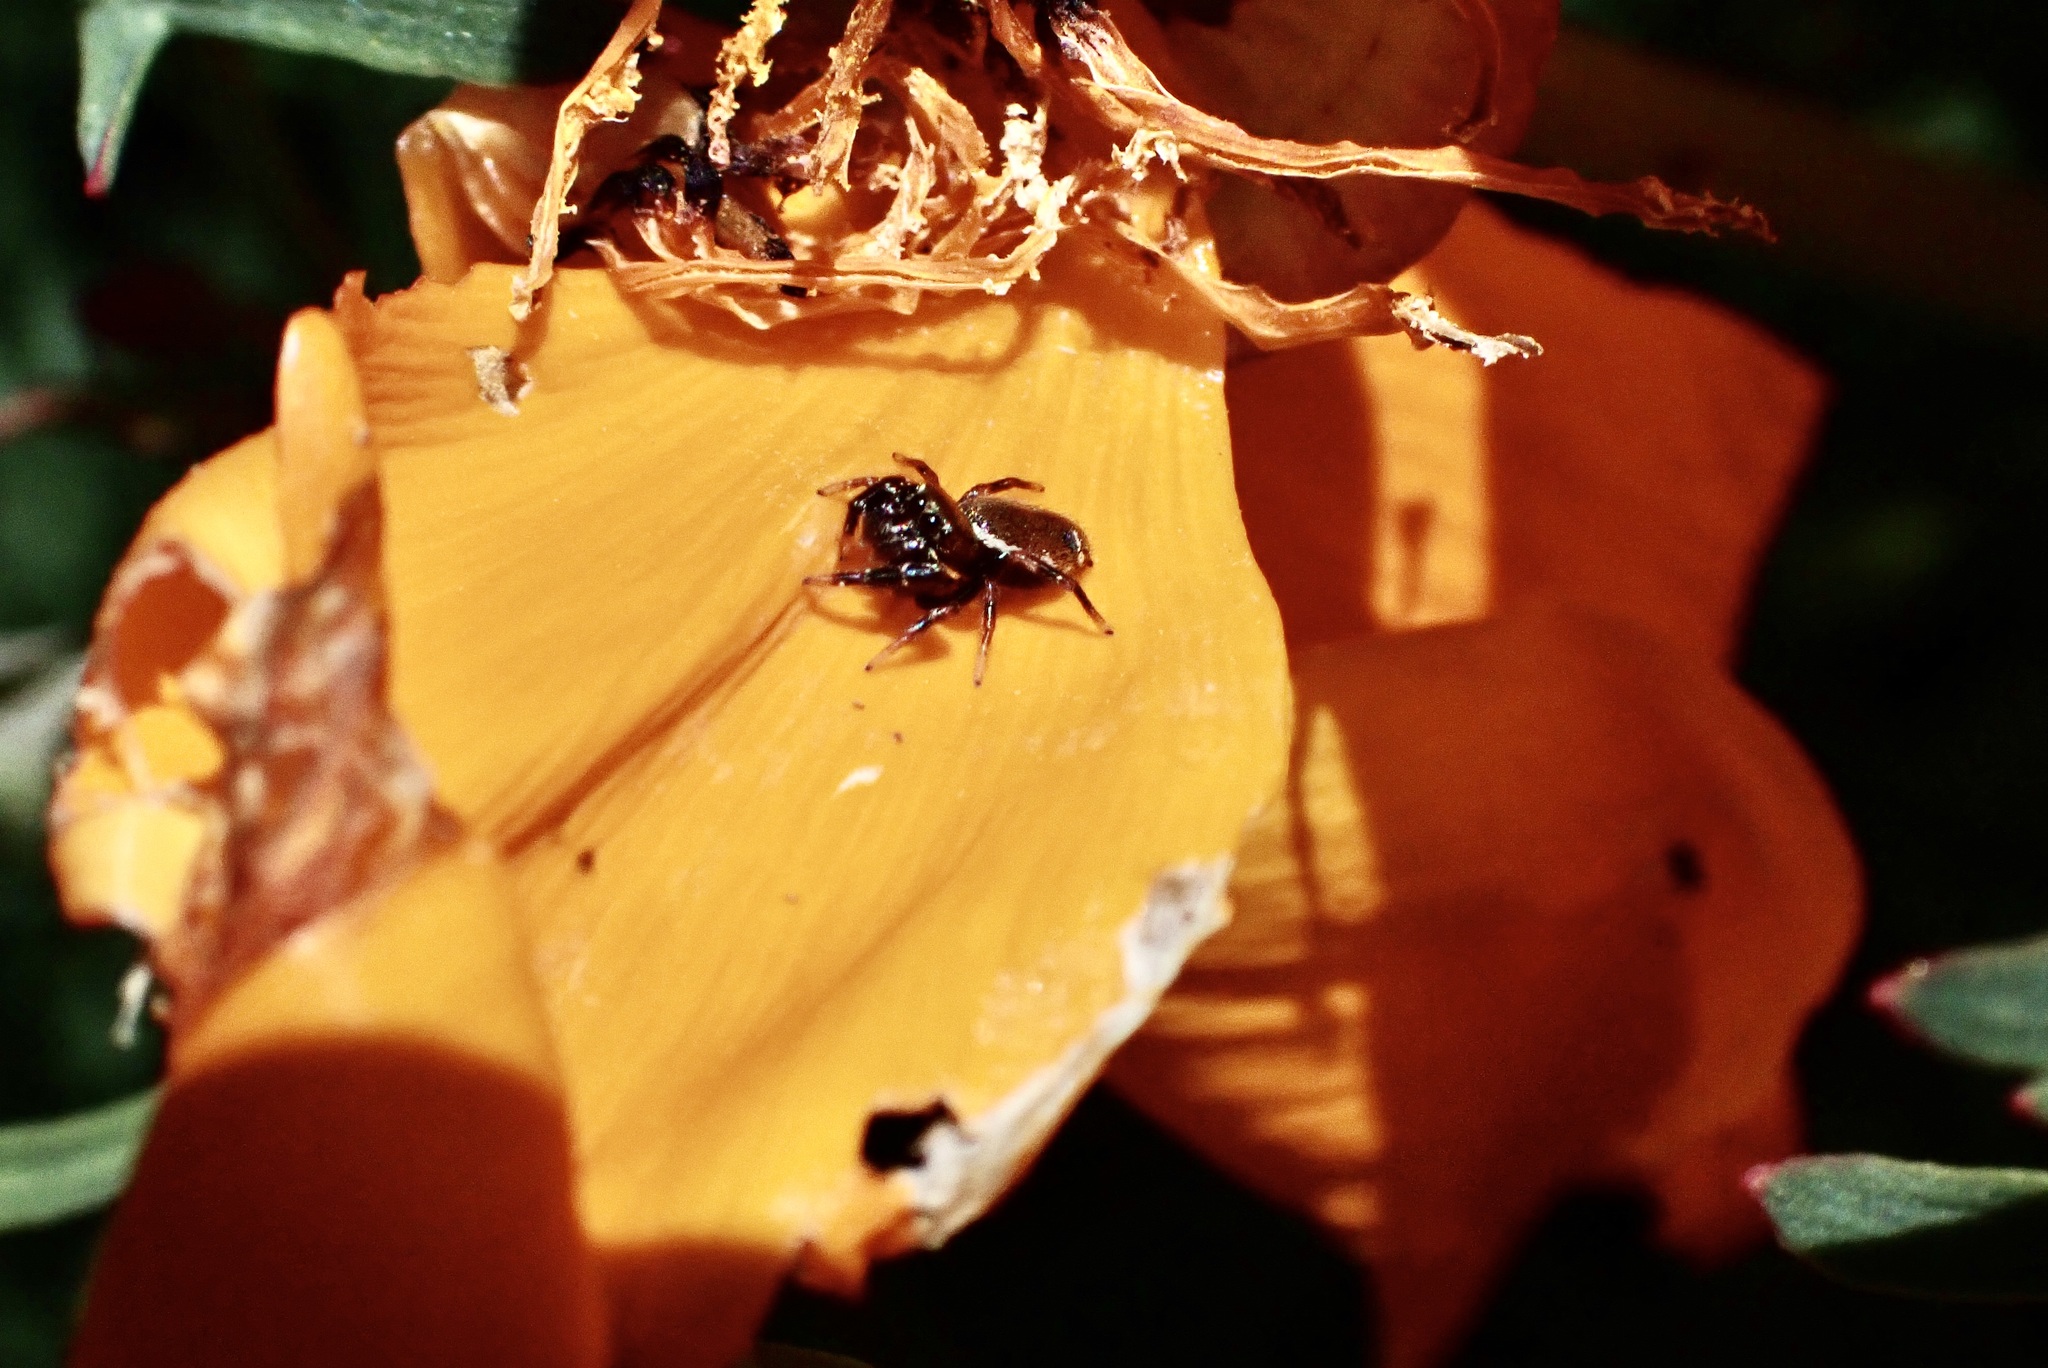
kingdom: Animalia
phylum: Arthropoda
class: Arachnida
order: Araneae
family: Salticidae
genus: Sassacus
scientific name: Sassacus vitis
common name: Jumping spiders
